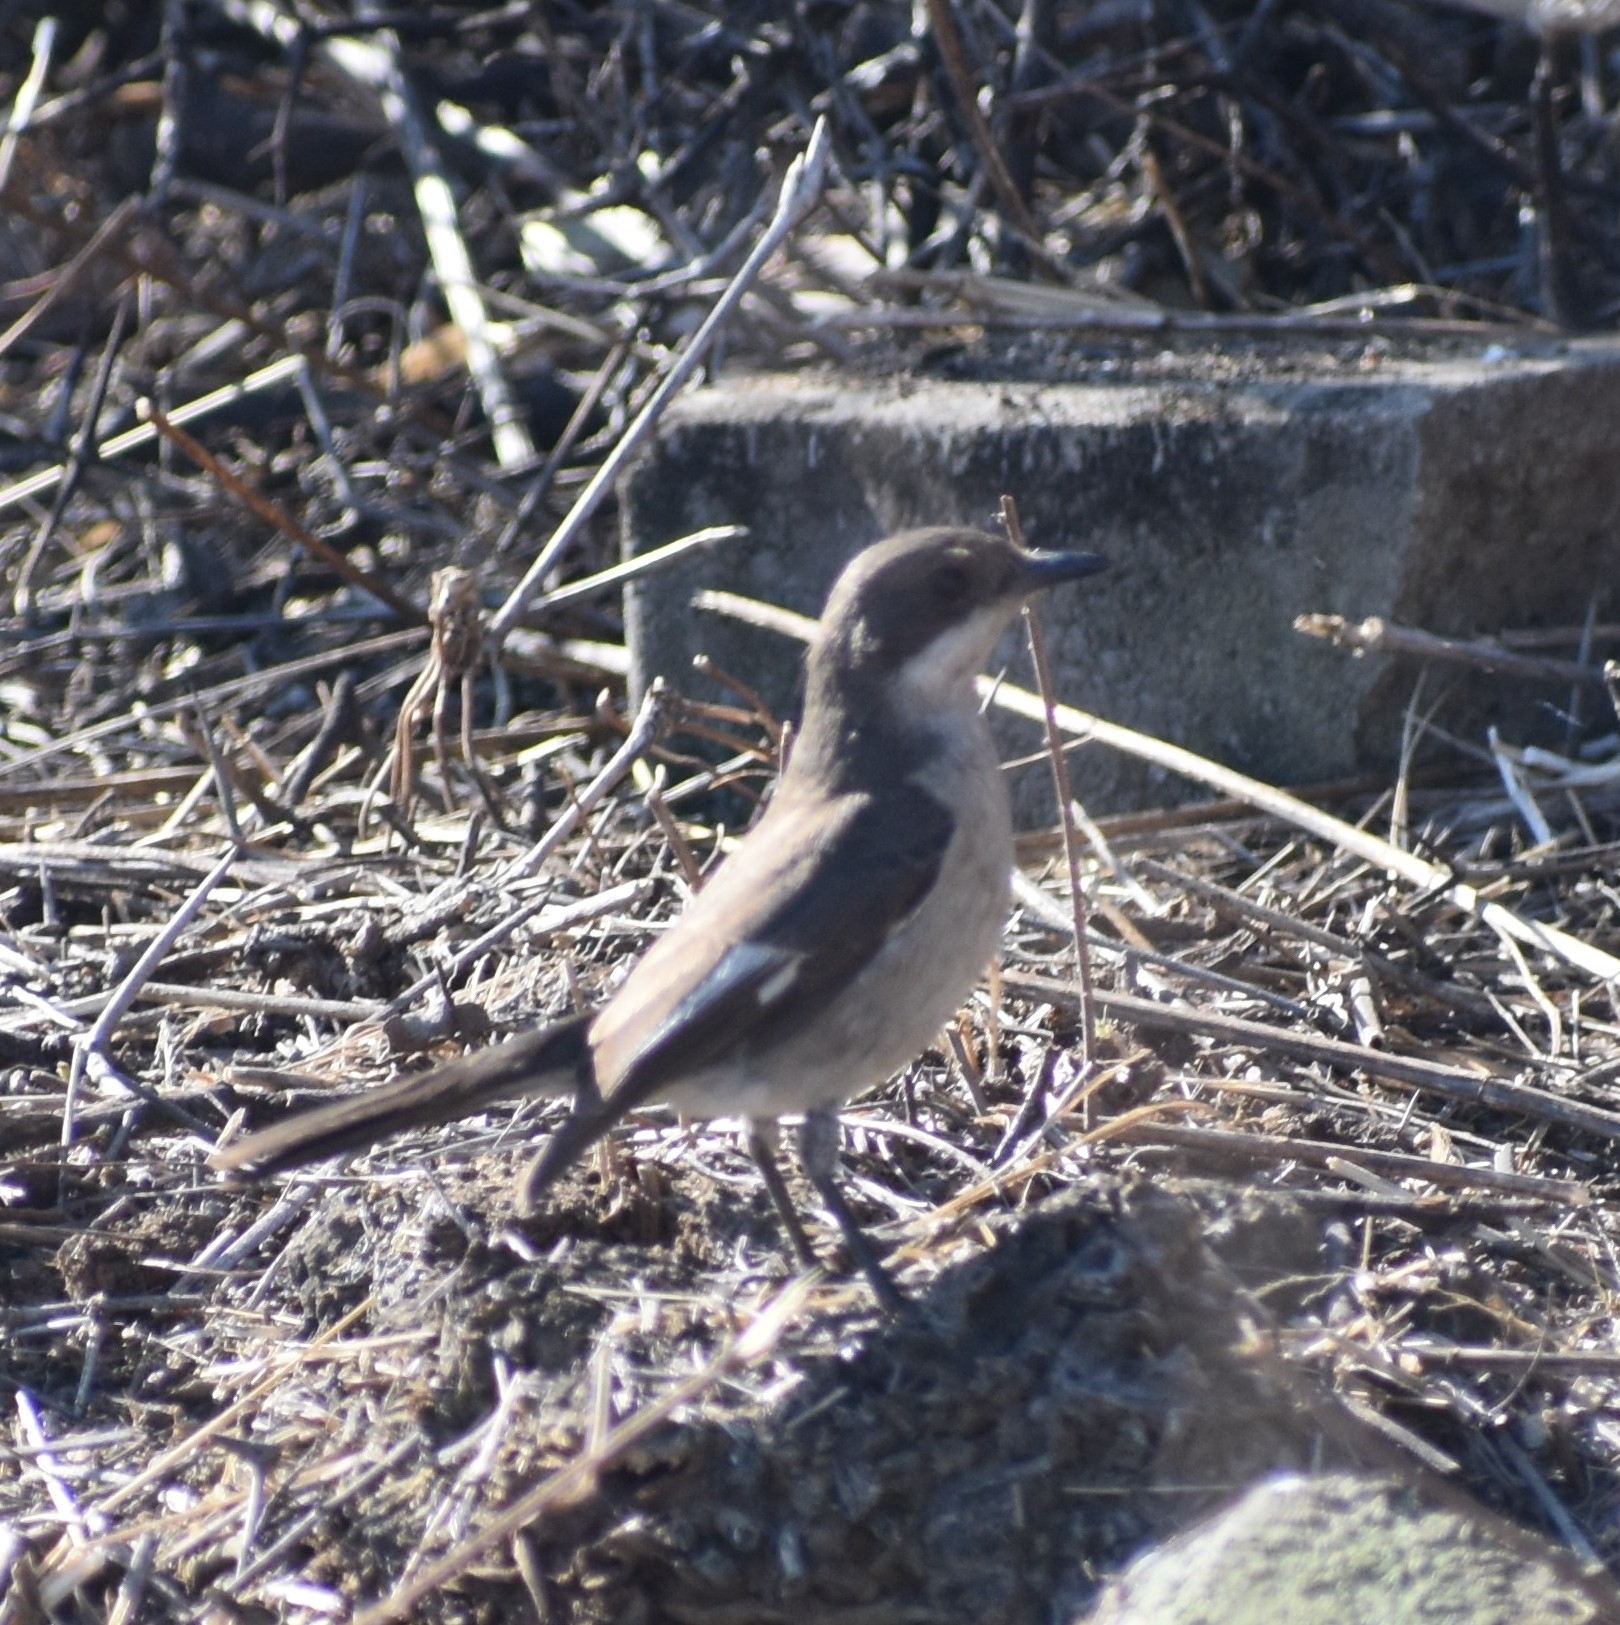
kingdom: Animalia
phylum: Chordata
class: Aves
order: Passeriformes
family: Muscicapidae
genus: Sigelus
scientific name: Sigelus silens
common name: Fiscal flycatcher
